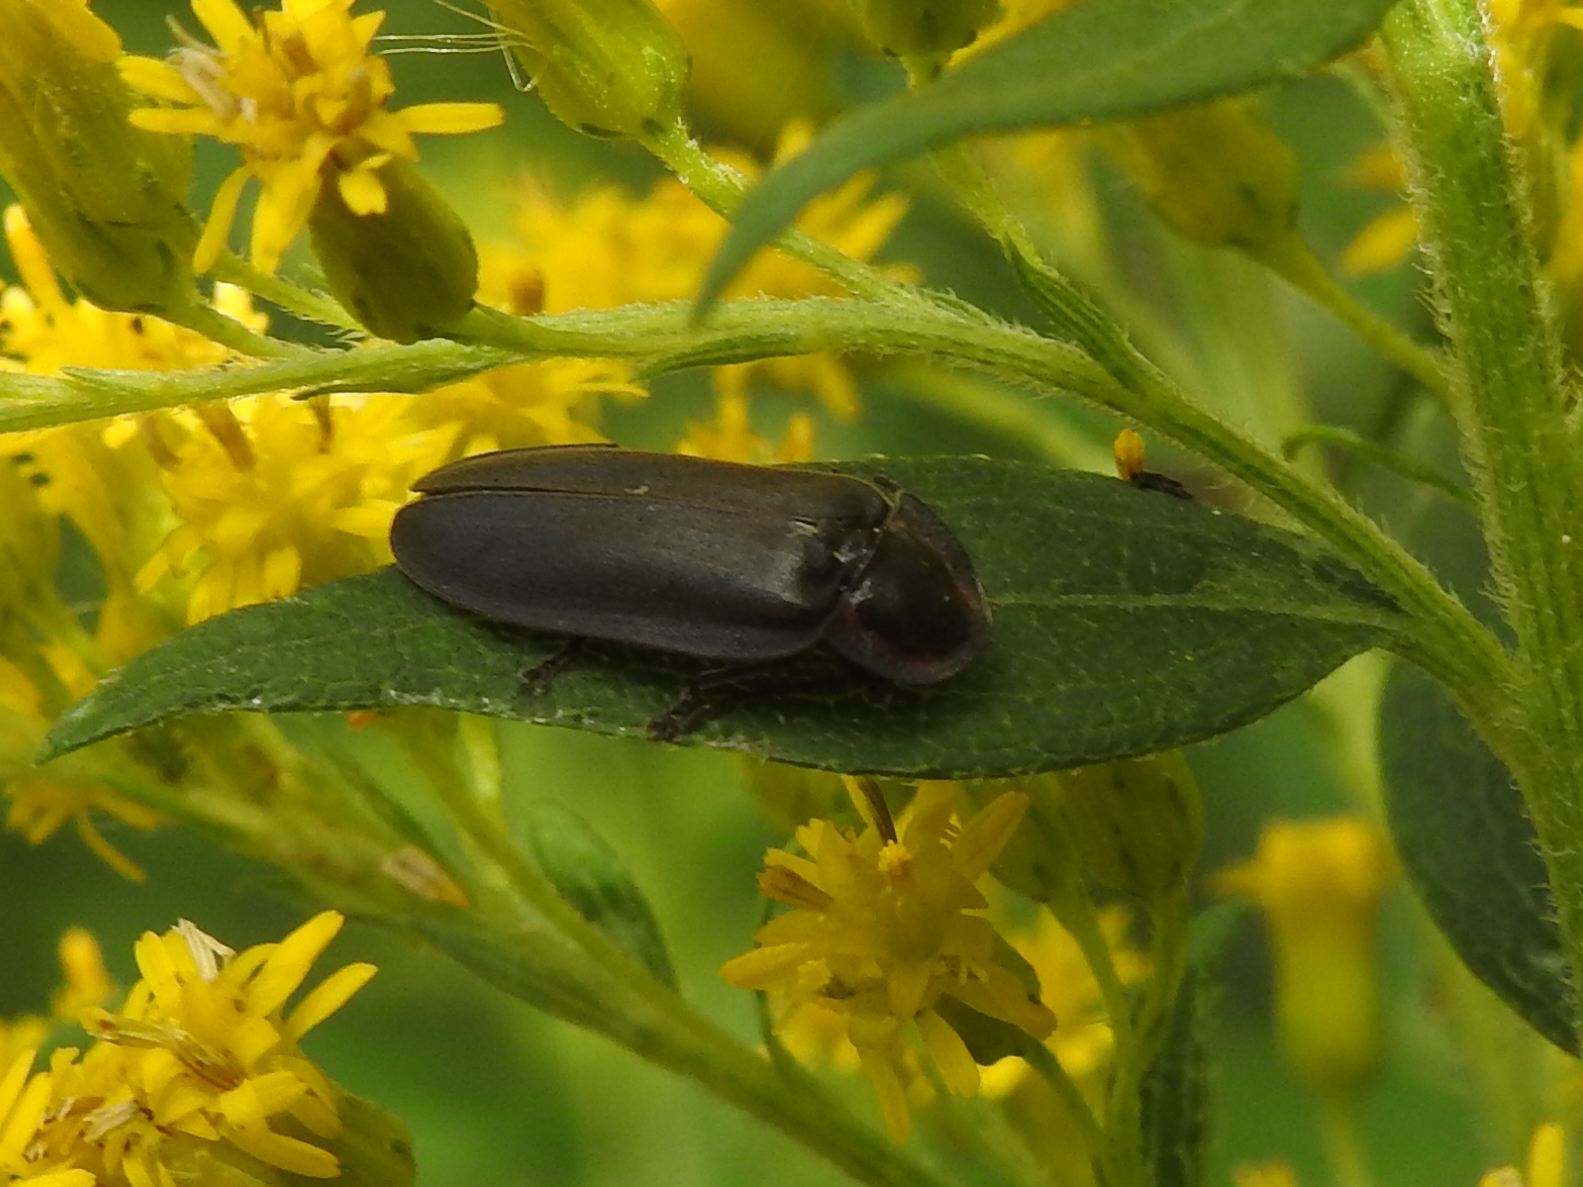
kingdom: Animalia
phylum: Arthropoda
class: Insecta
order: Coleoptera
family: Lampyridae
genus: Photinus
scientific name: Photinus corrusca
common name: Winter firefly
